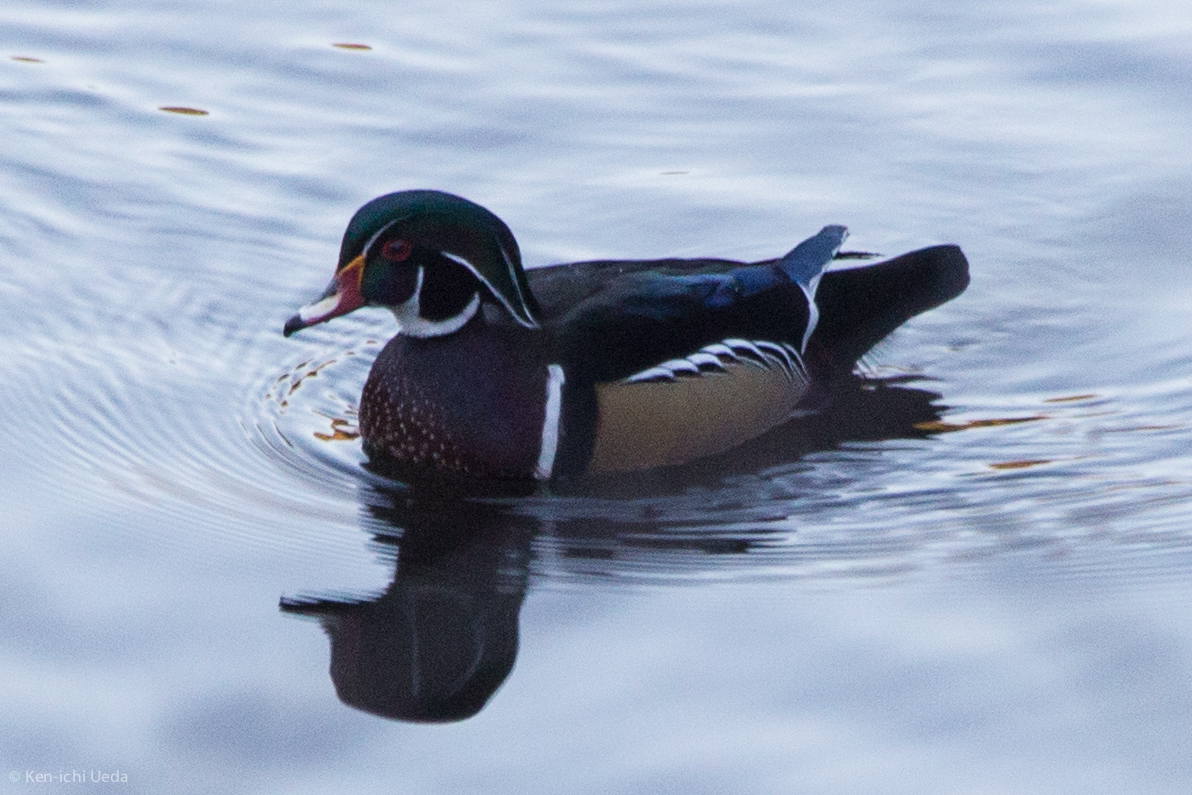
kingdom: Animalia
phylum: Chordata
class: Aves
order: Anseriformes
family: Anatidae
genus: Aix
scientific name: Aix sponsa
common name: Wood duck
